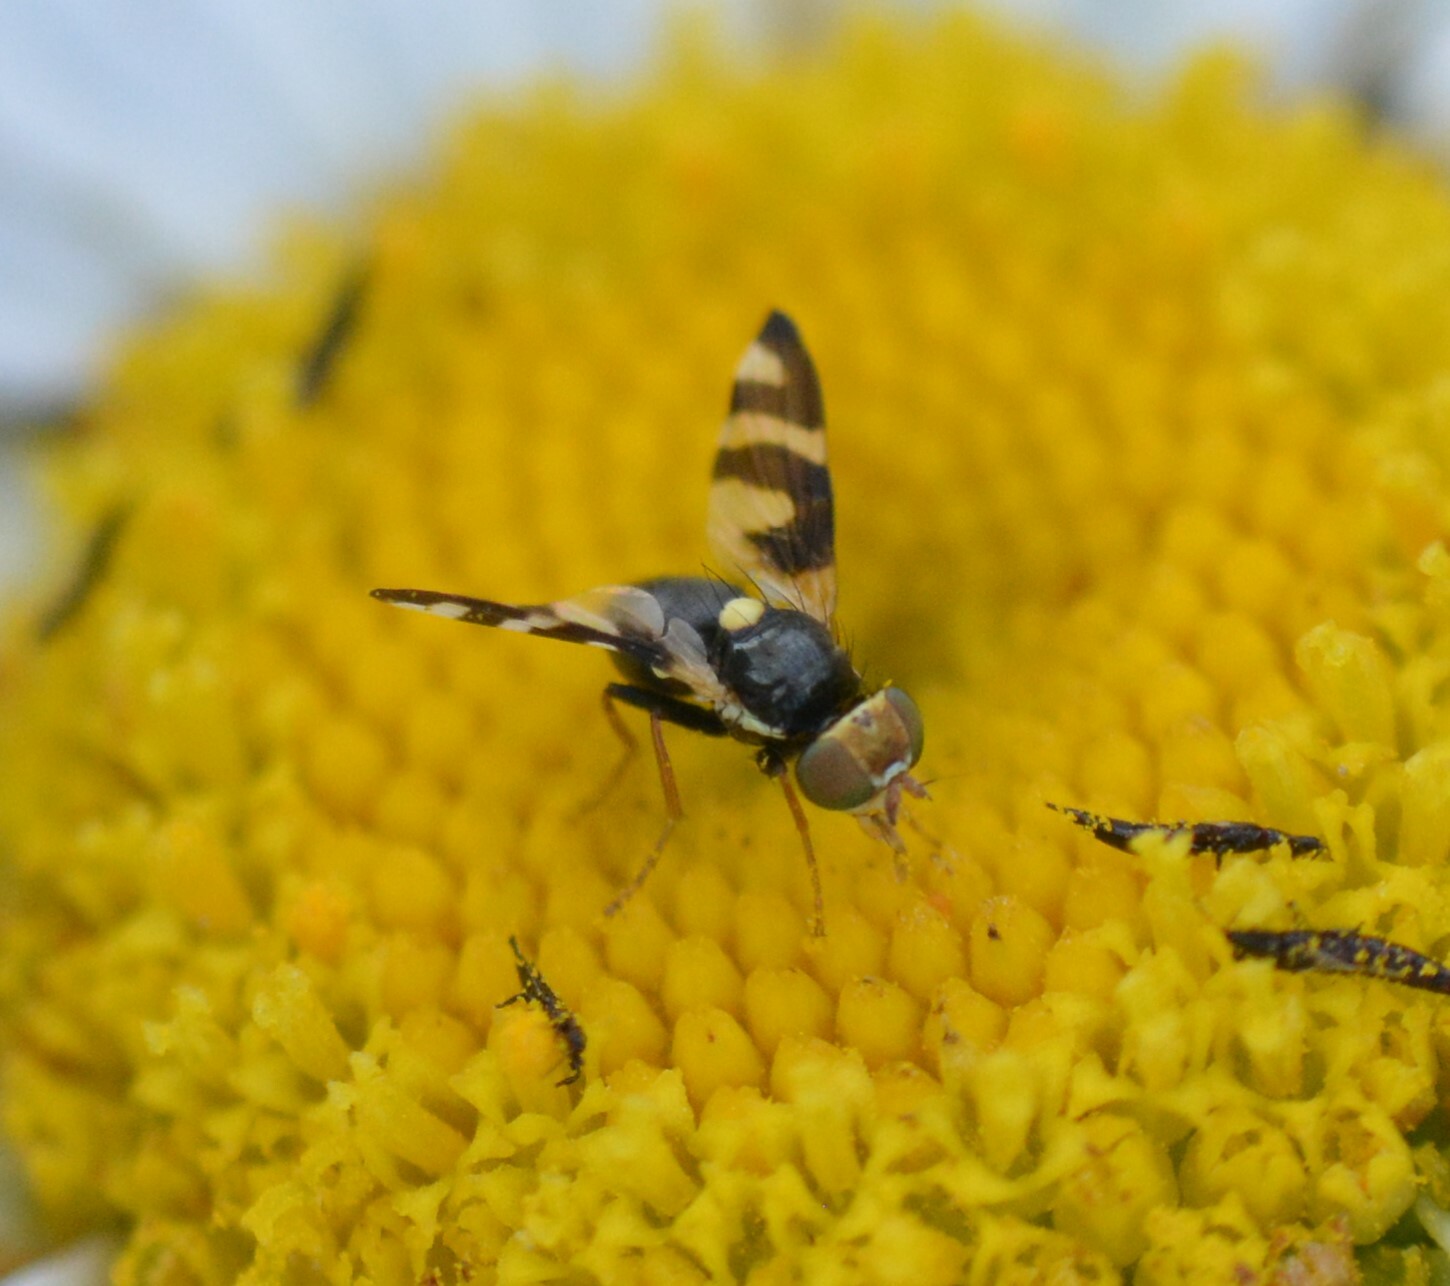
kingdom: Animalia
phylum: Arthropoda
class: Insecta
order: Diptera
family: Tephritidae
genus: Urophora
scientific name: Urophora quadrifasciata
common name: Knapweed seedhead fly
